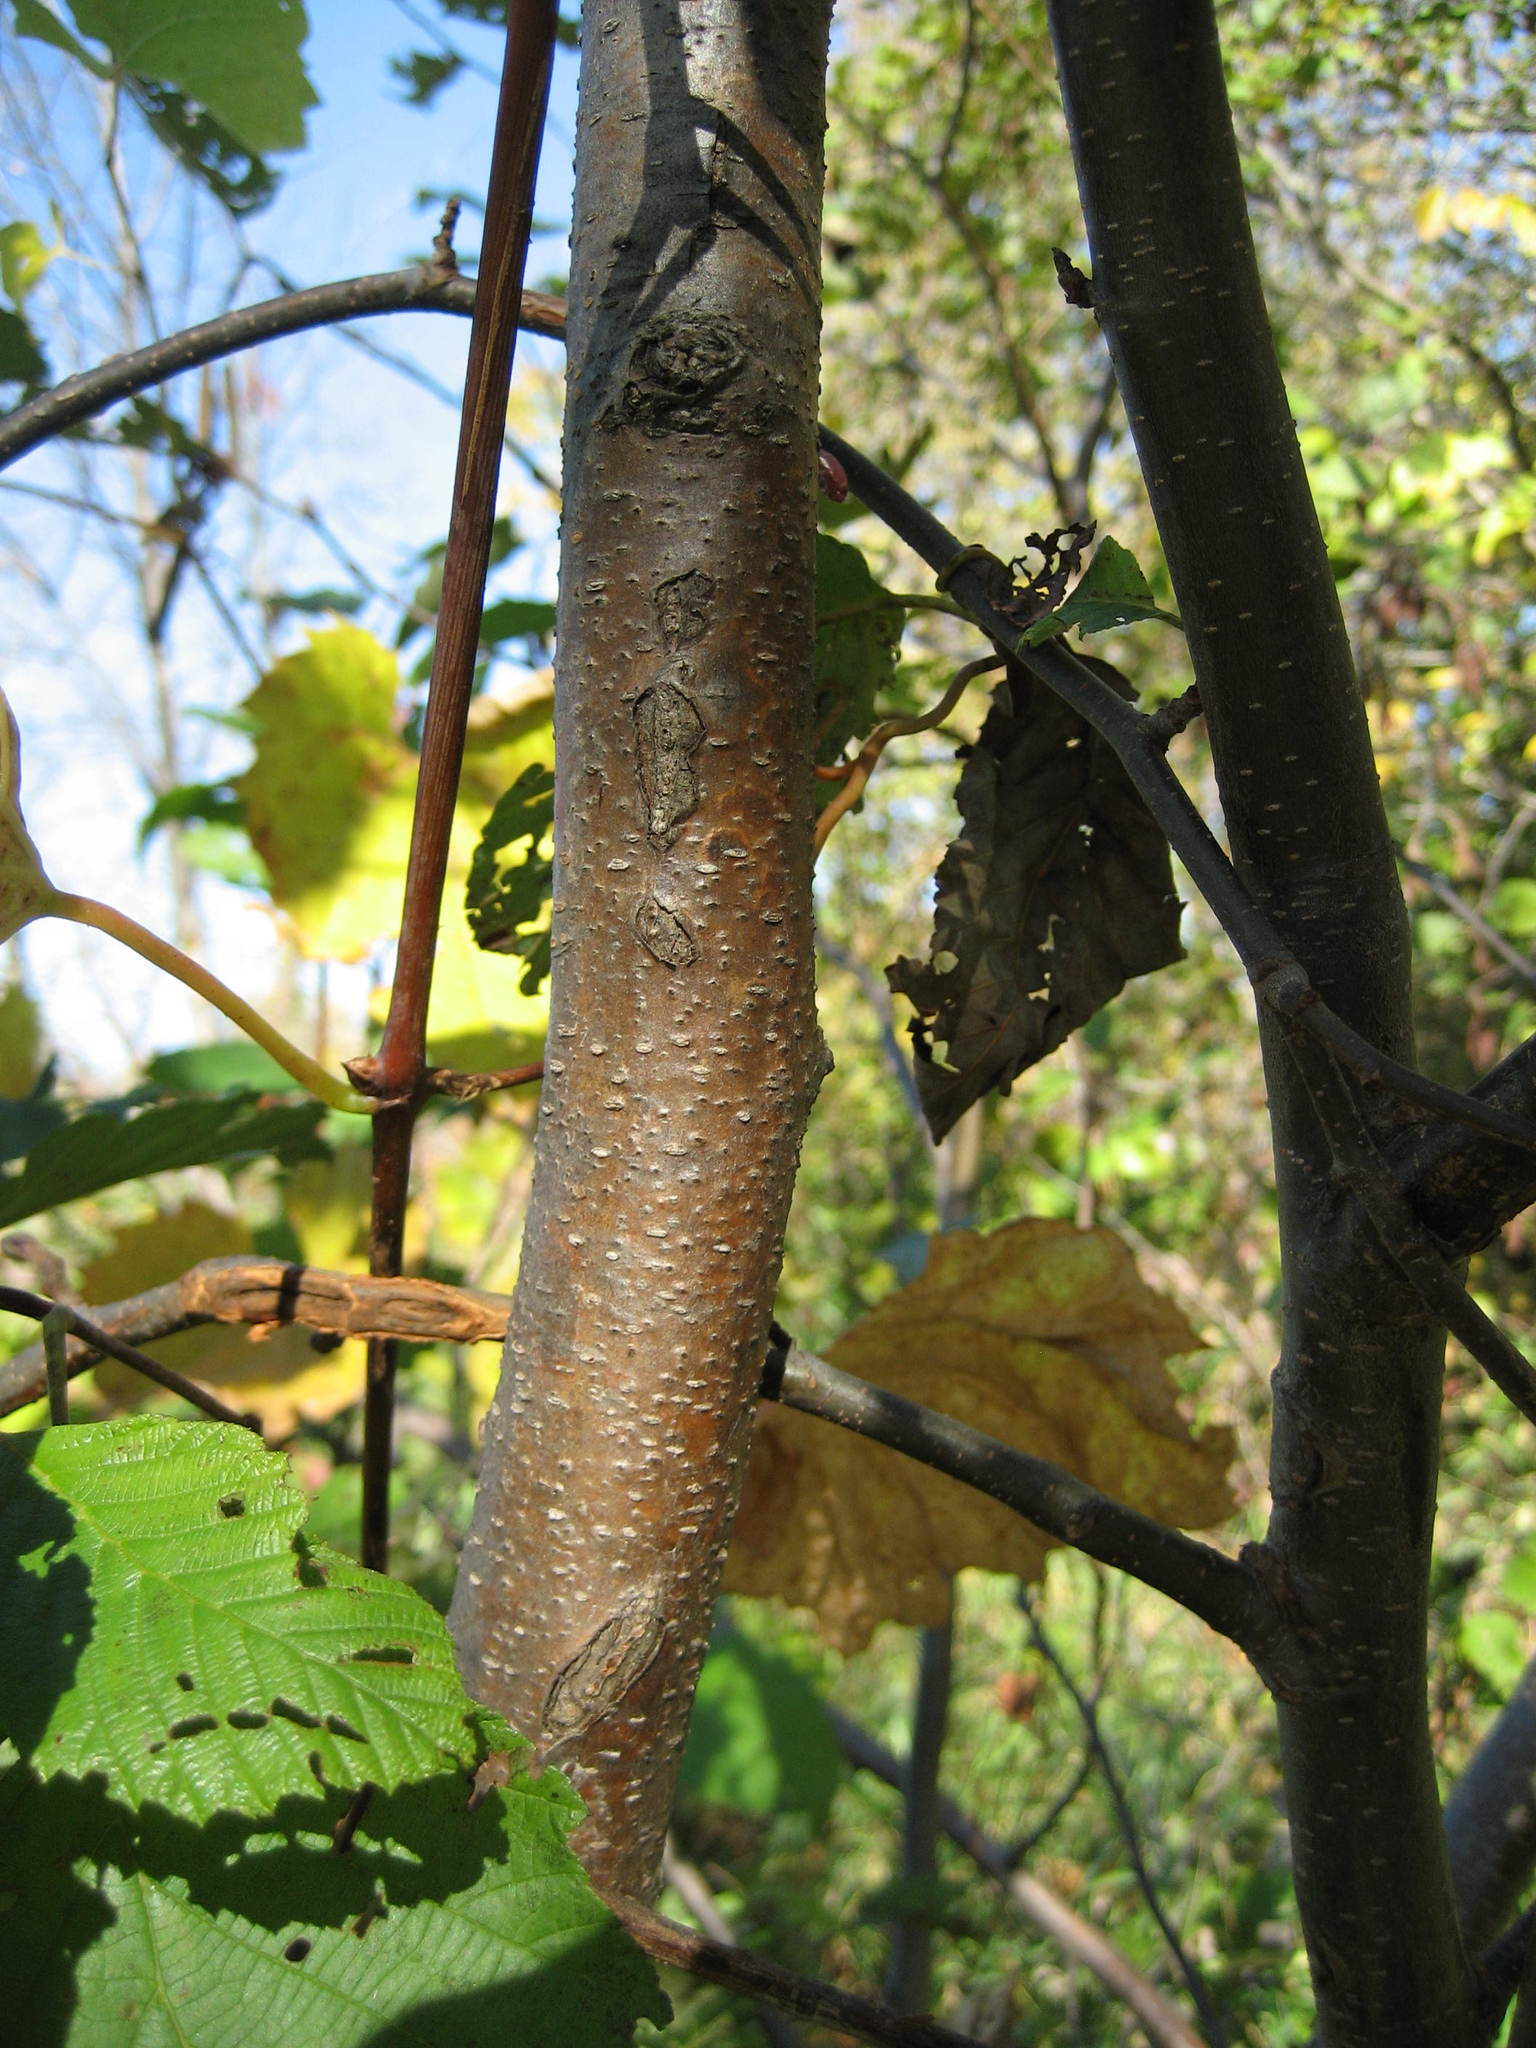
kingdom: Plantae
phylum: Tracheophyta
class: Magnoliopsida
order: Fagales
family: Betulaceae
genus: Alnus
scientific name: Alnus incana
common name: Grey alder
